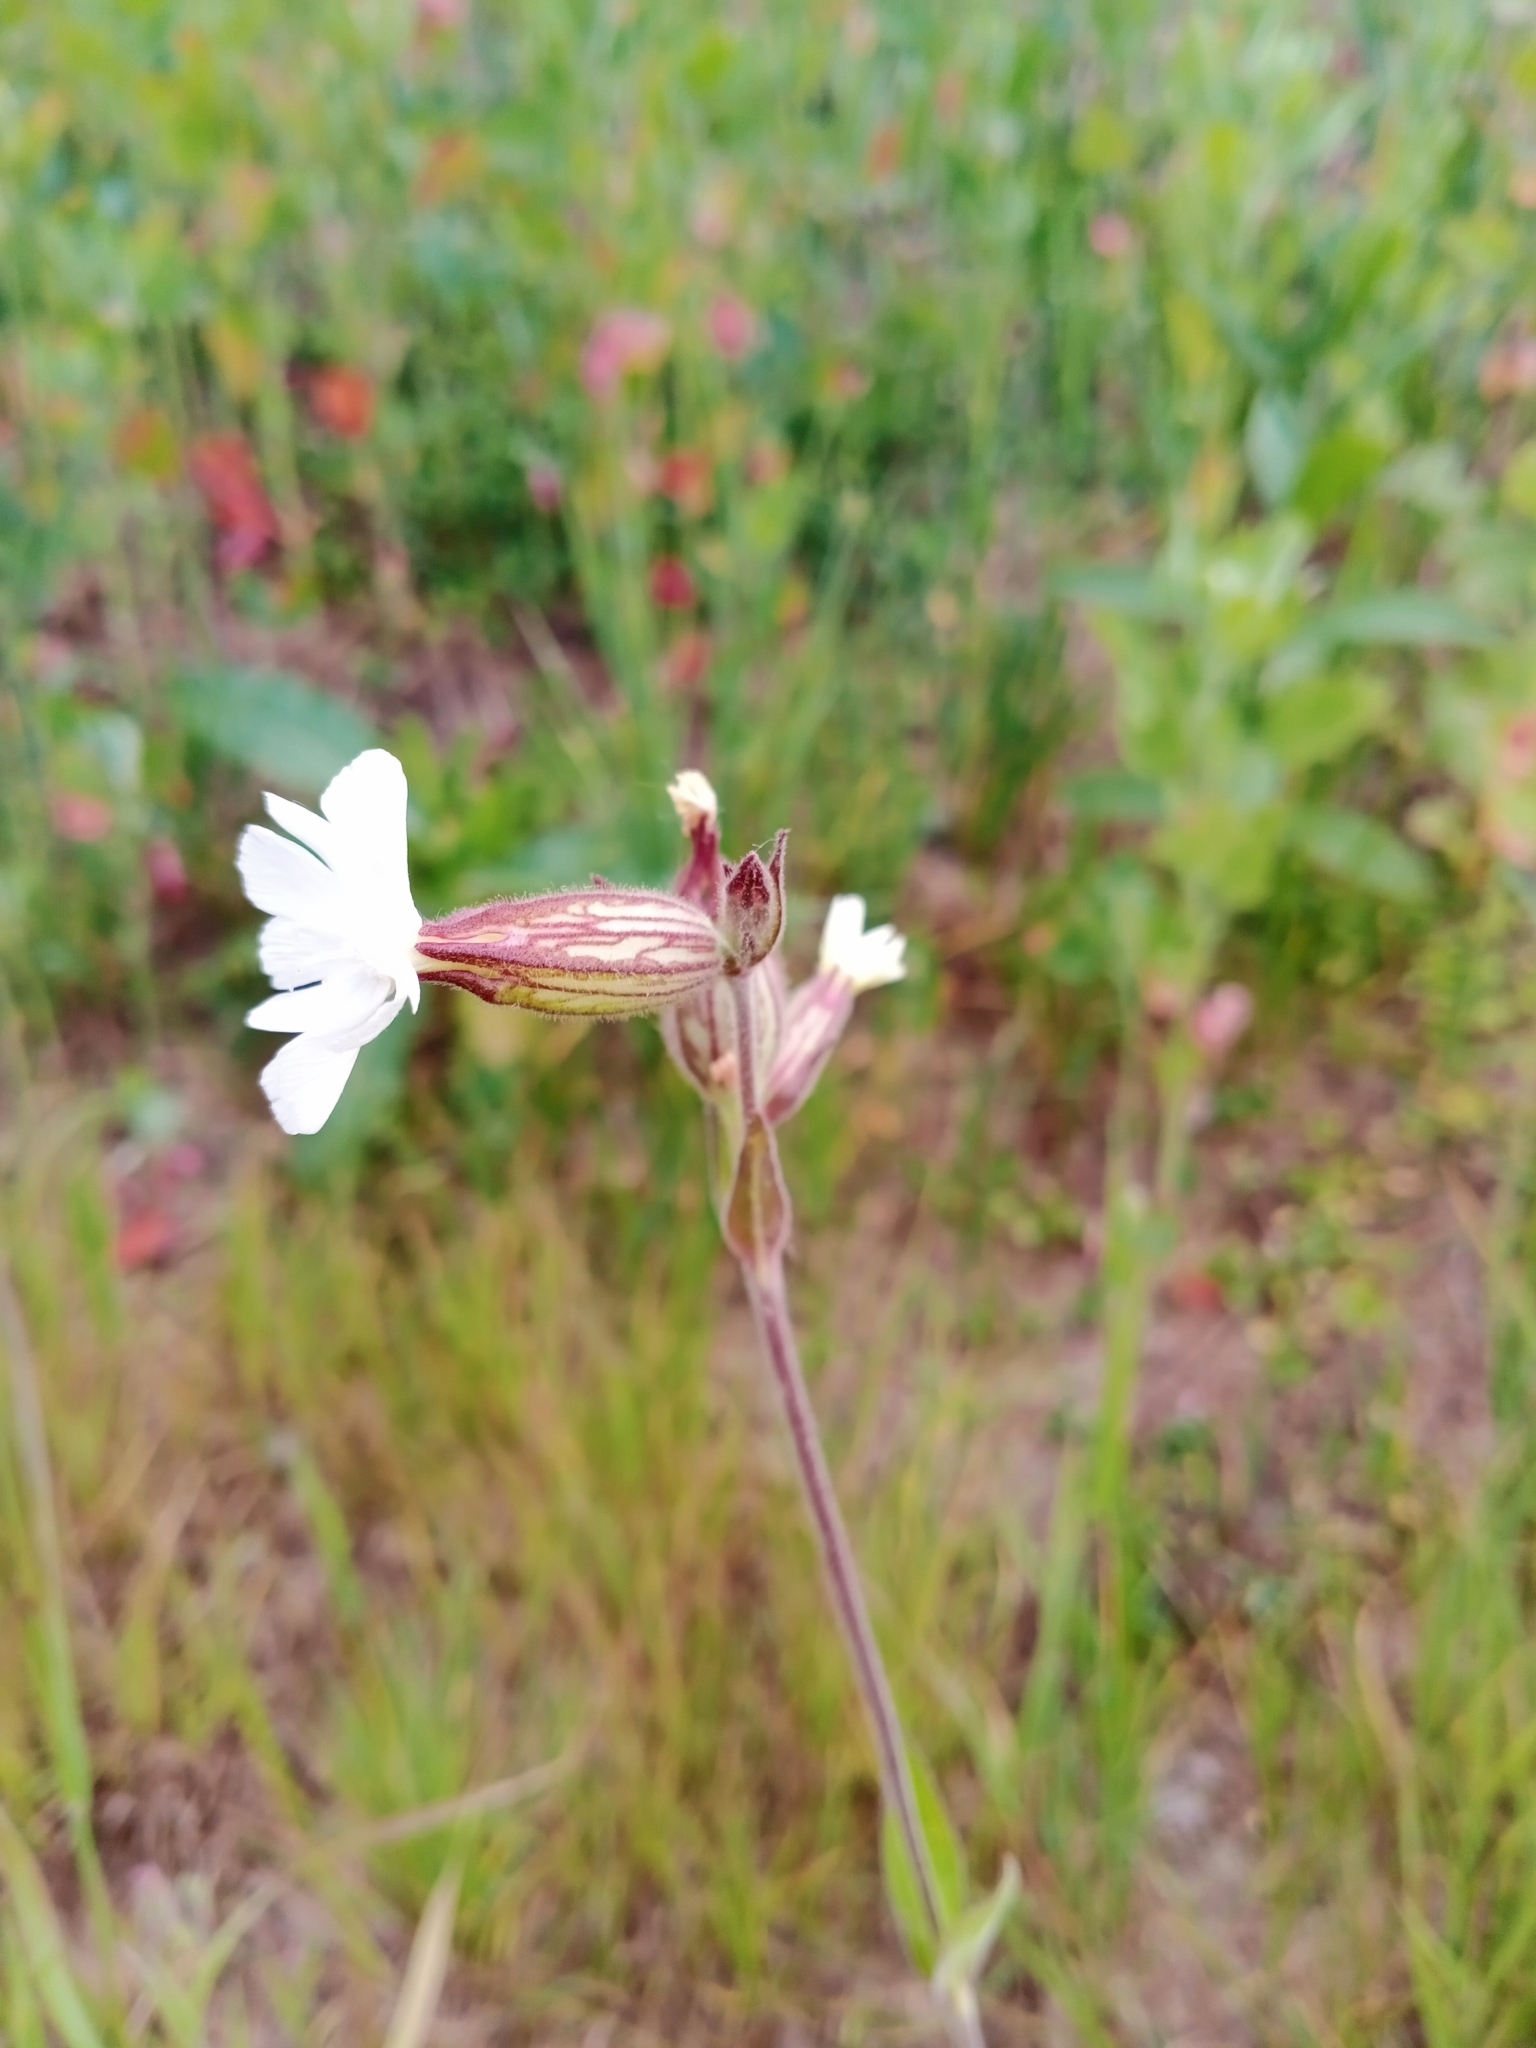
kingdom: Plantae
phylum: Tracheophyta
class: Magnoliopsida
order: Caryophyllales
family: Caryophyllaceae
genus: Silene
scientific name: Silene latifolia
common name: White campion
